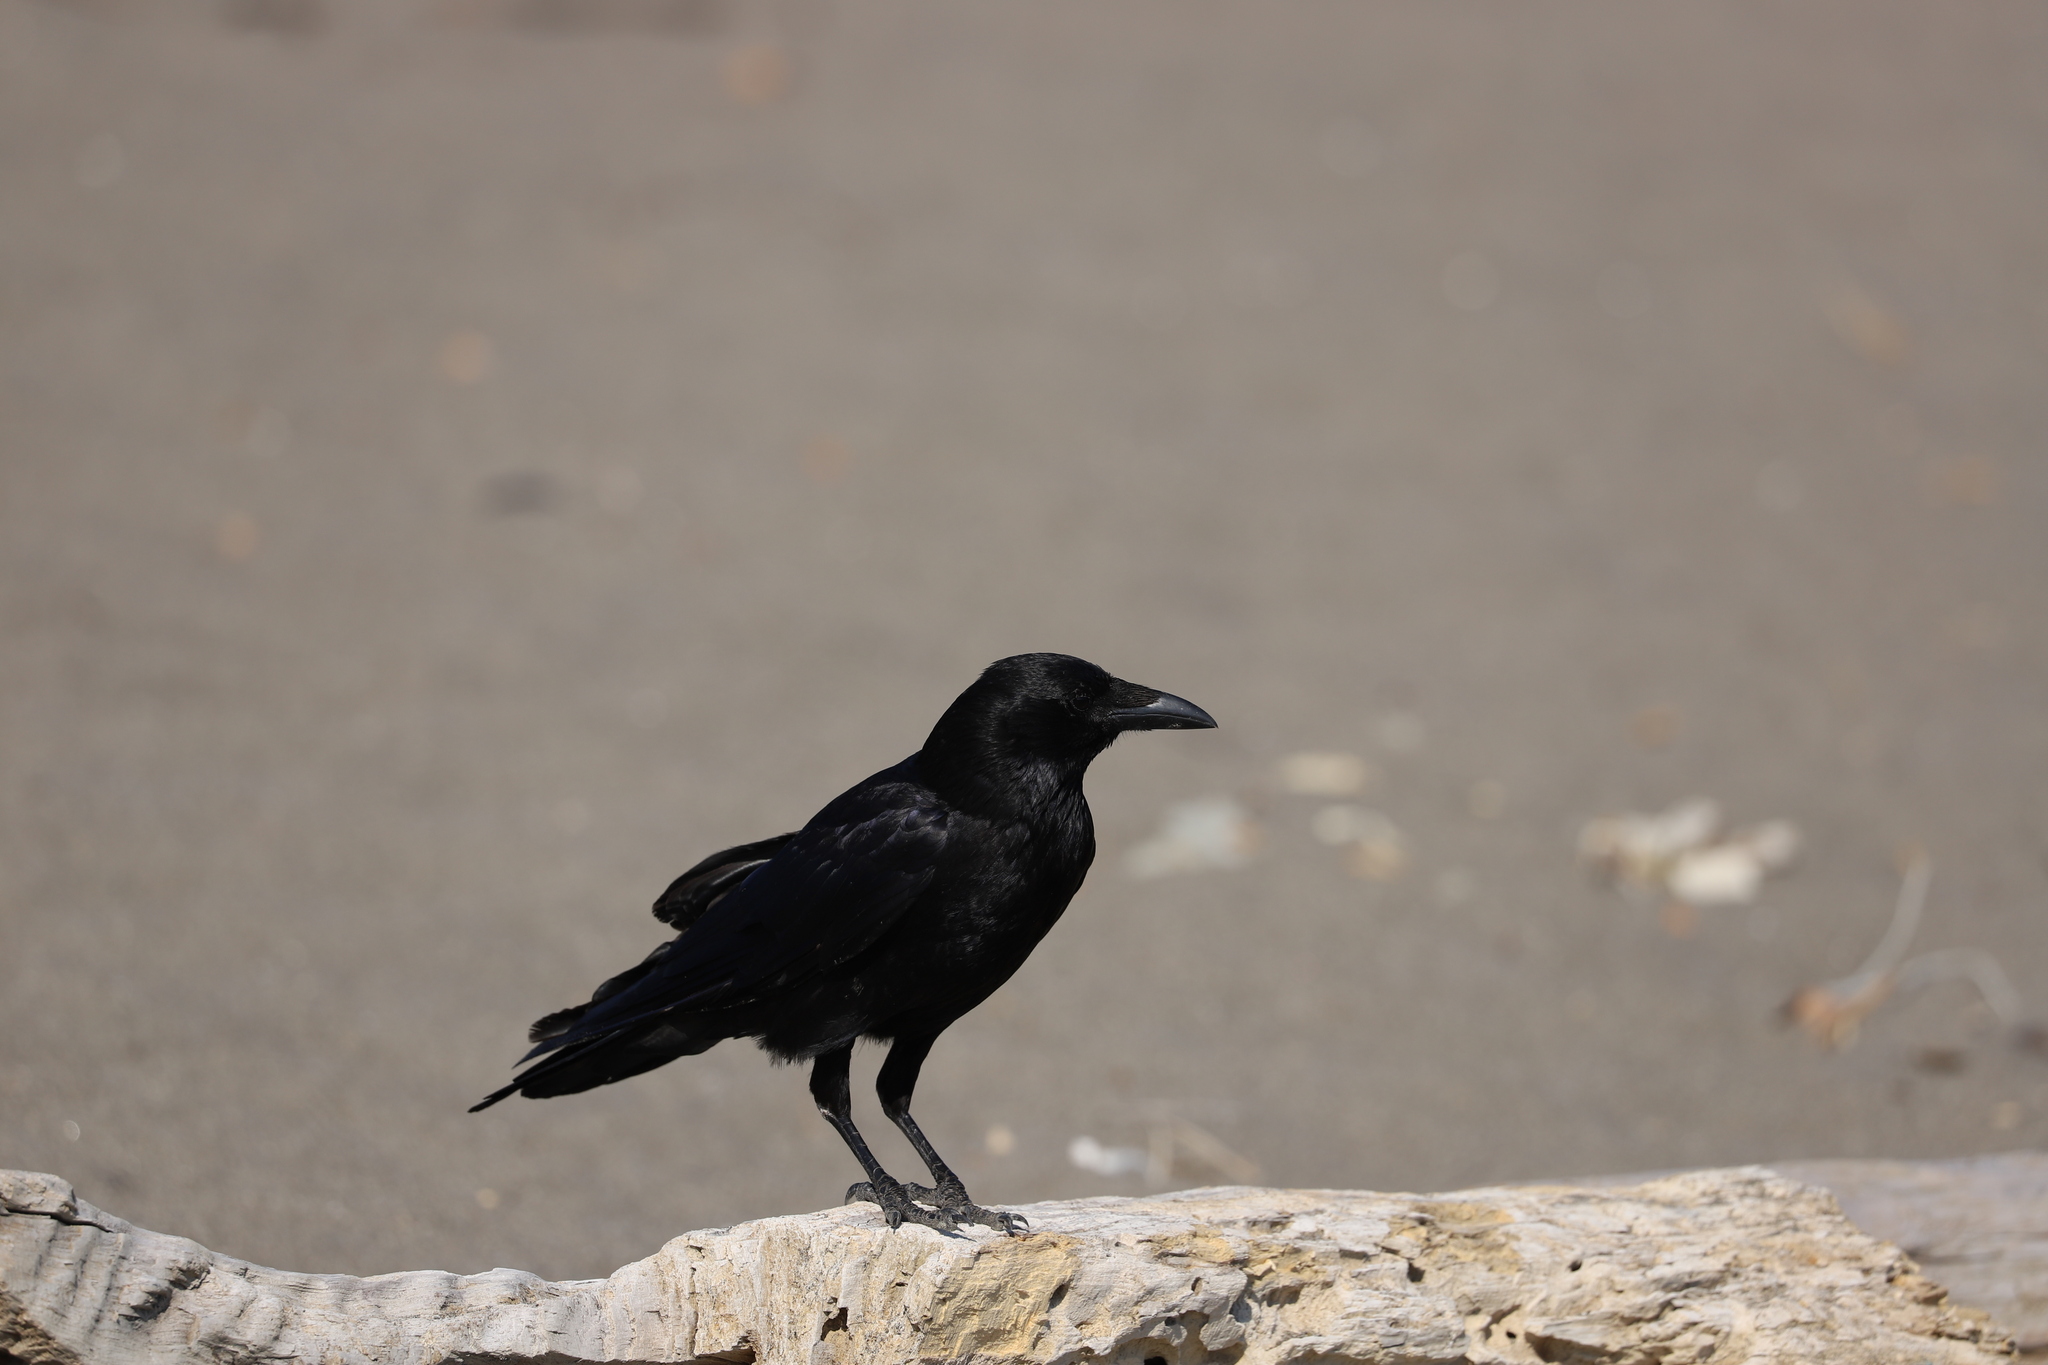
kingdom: Animalia
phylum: Chordata
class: Aves
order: Passeriformes
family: Corvidae
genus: Corvus
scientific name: Corvus corone
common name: Carrion crow
